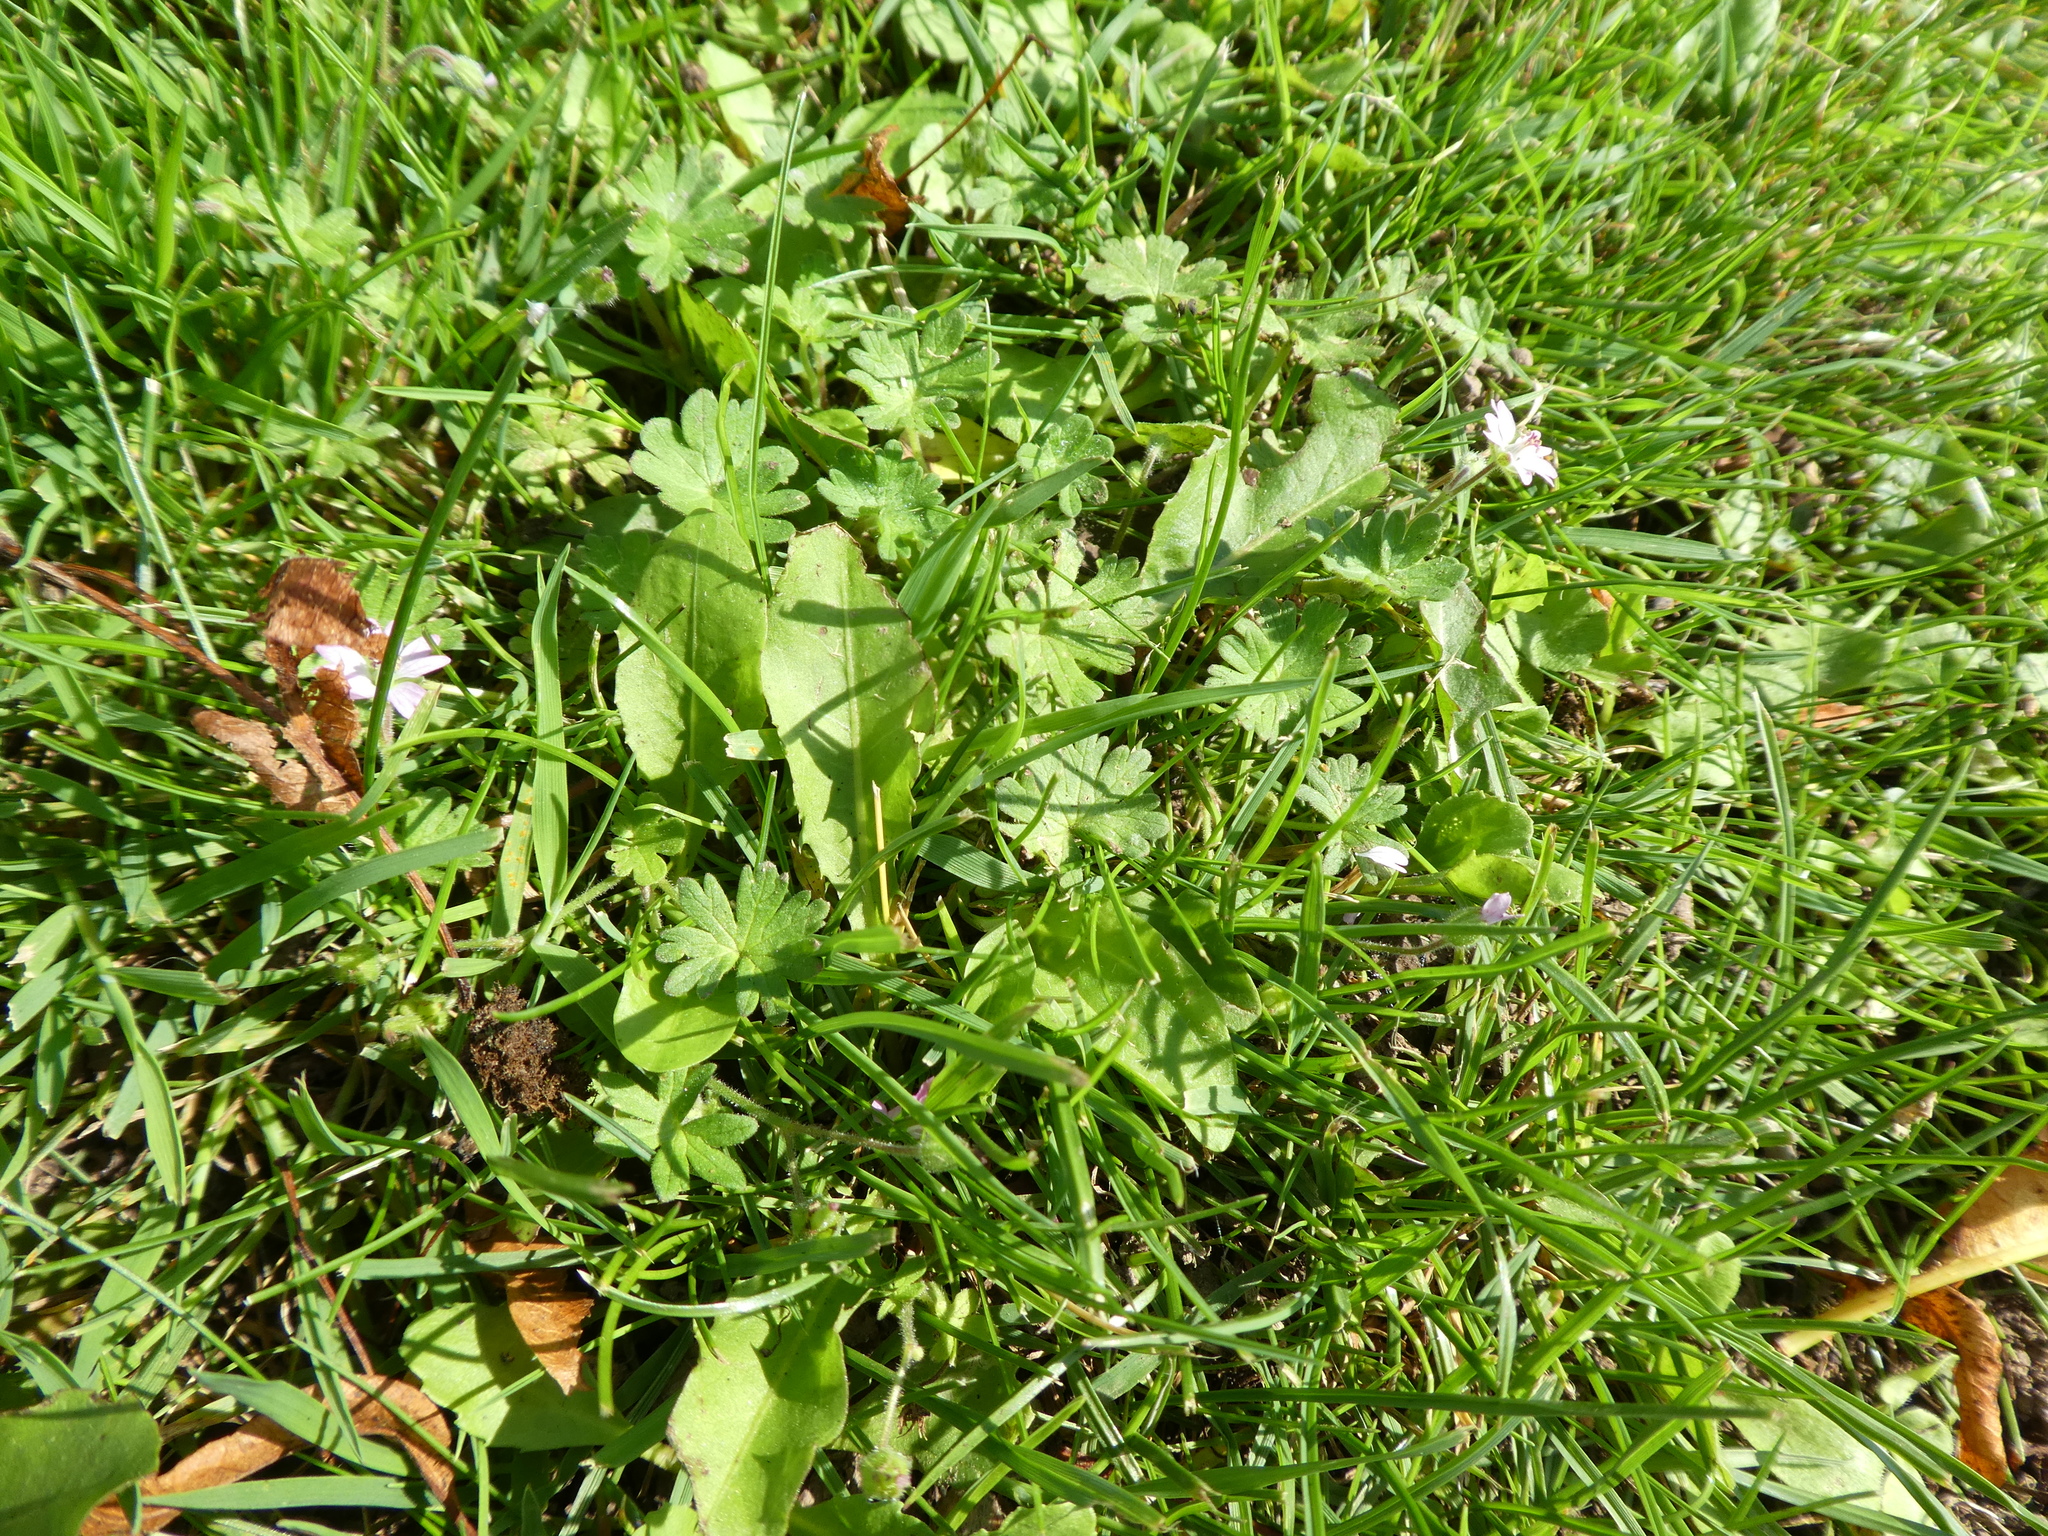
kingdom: Plantae
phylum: Tracheophyta
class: Magnoliopsida
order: Geraniales
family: Geraniaceae
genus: Geranium
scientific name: Geranium molle
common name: Dove's-foot crane's-bill
